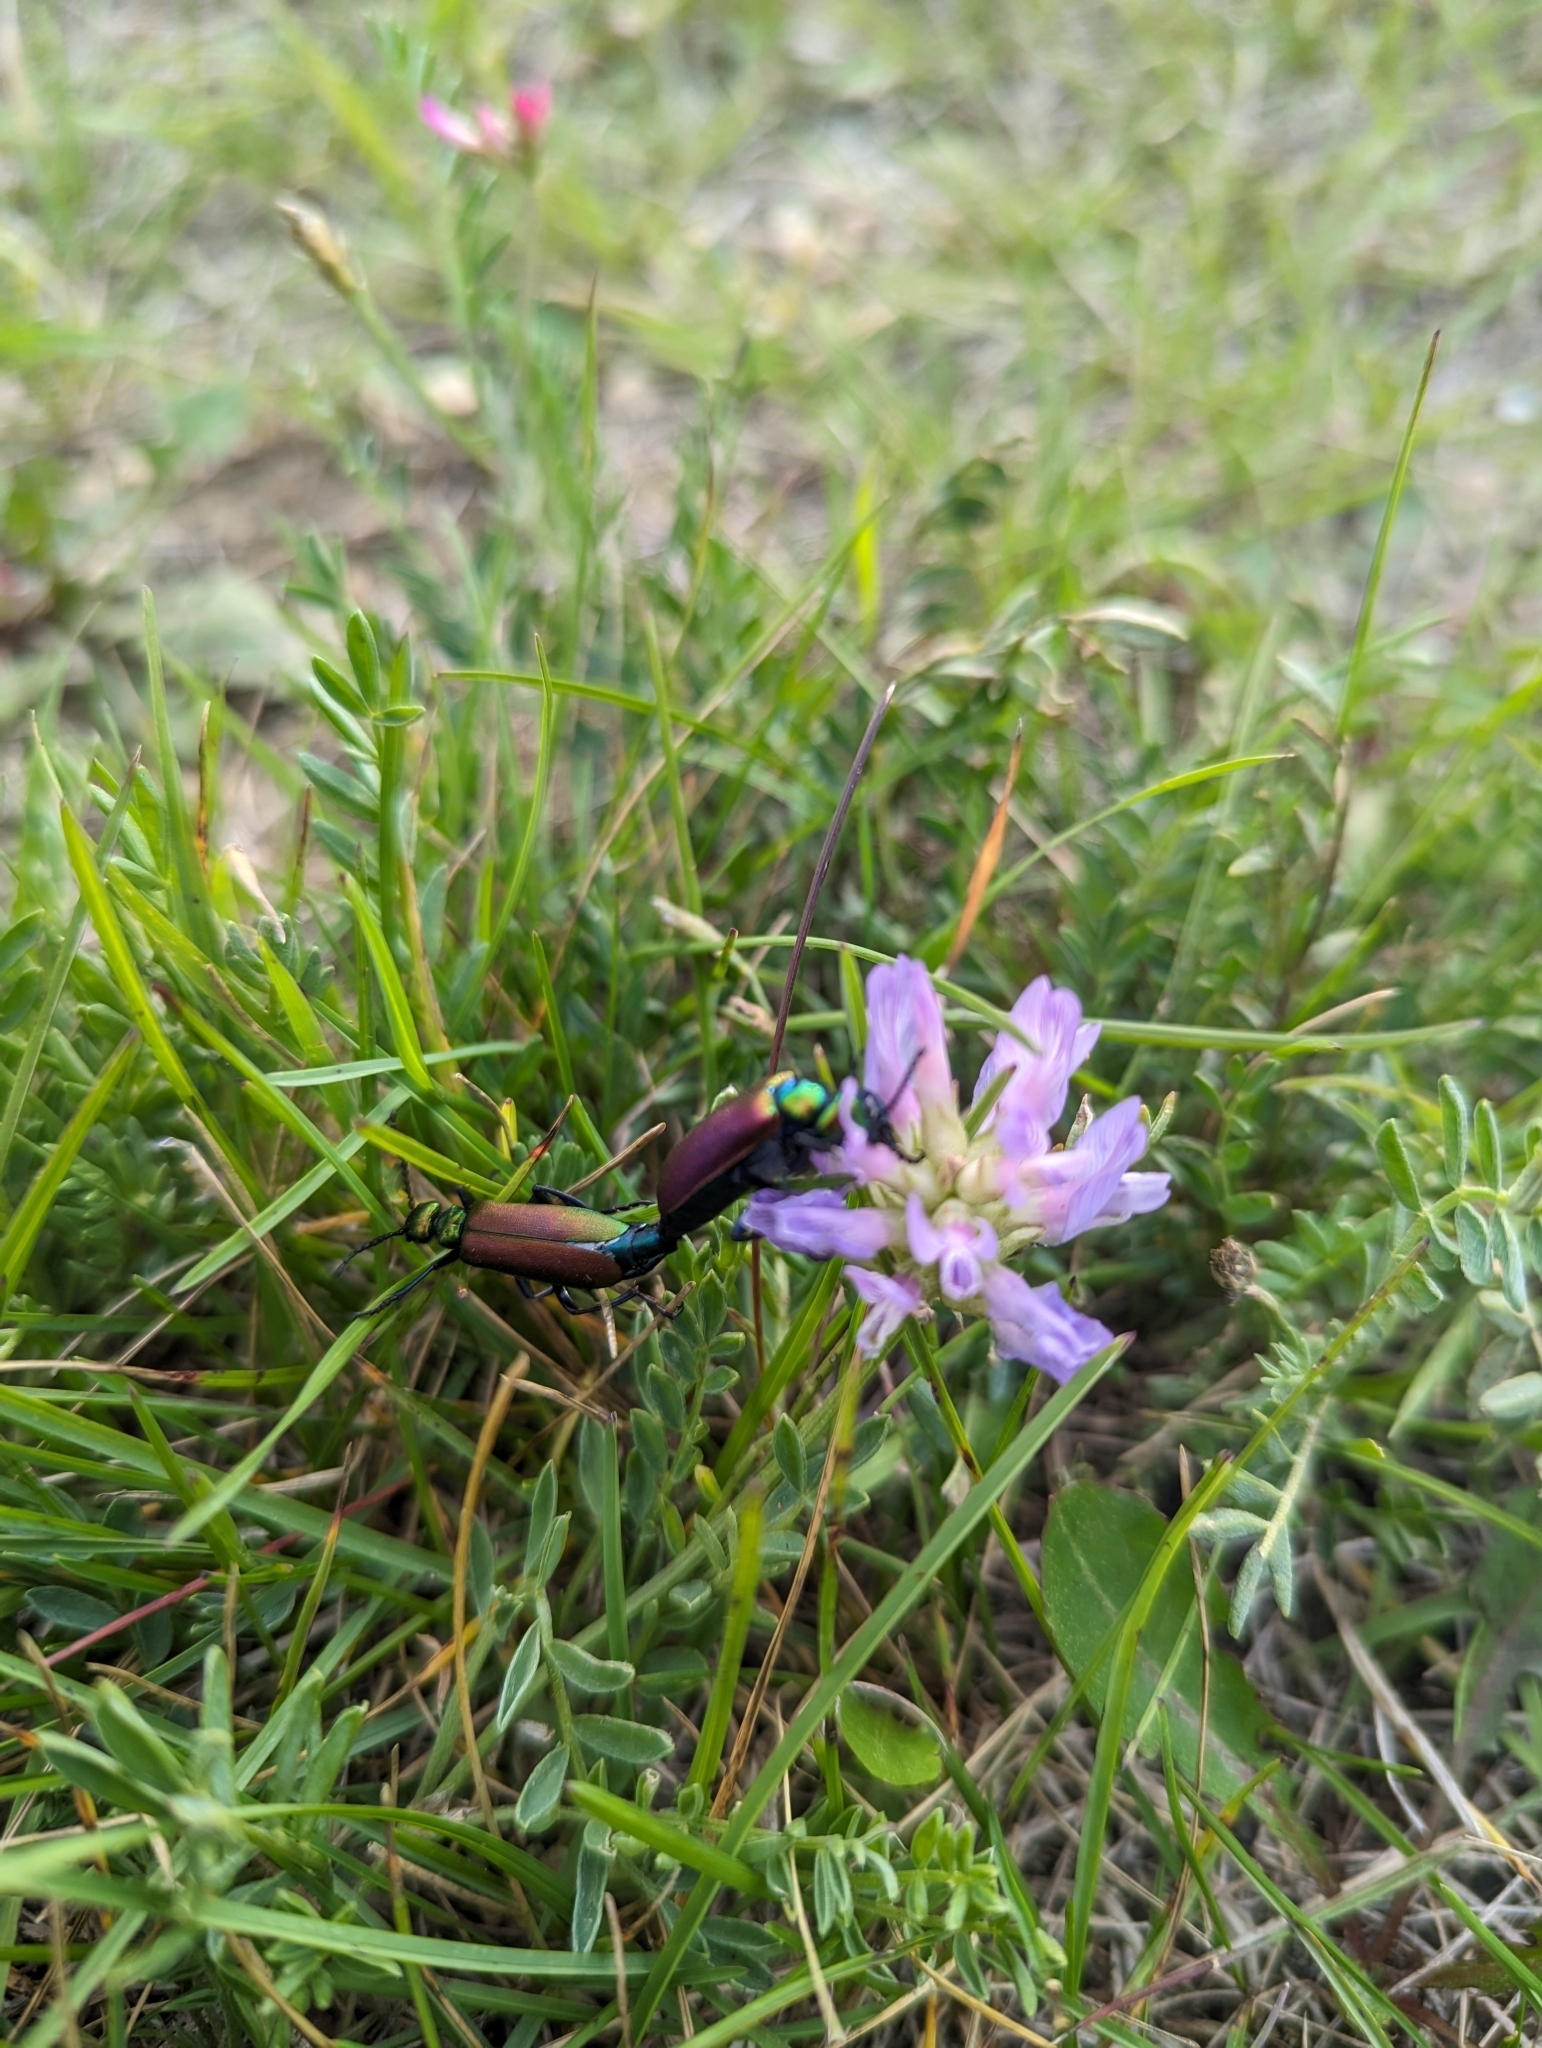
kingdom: Plantae
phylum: Tracheophyta
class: Magnoliopsida
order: Fabales
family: Fabaceae
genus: Astragalus
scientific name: Astragalus laxmannii
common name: Laxmann's milk-vetch
